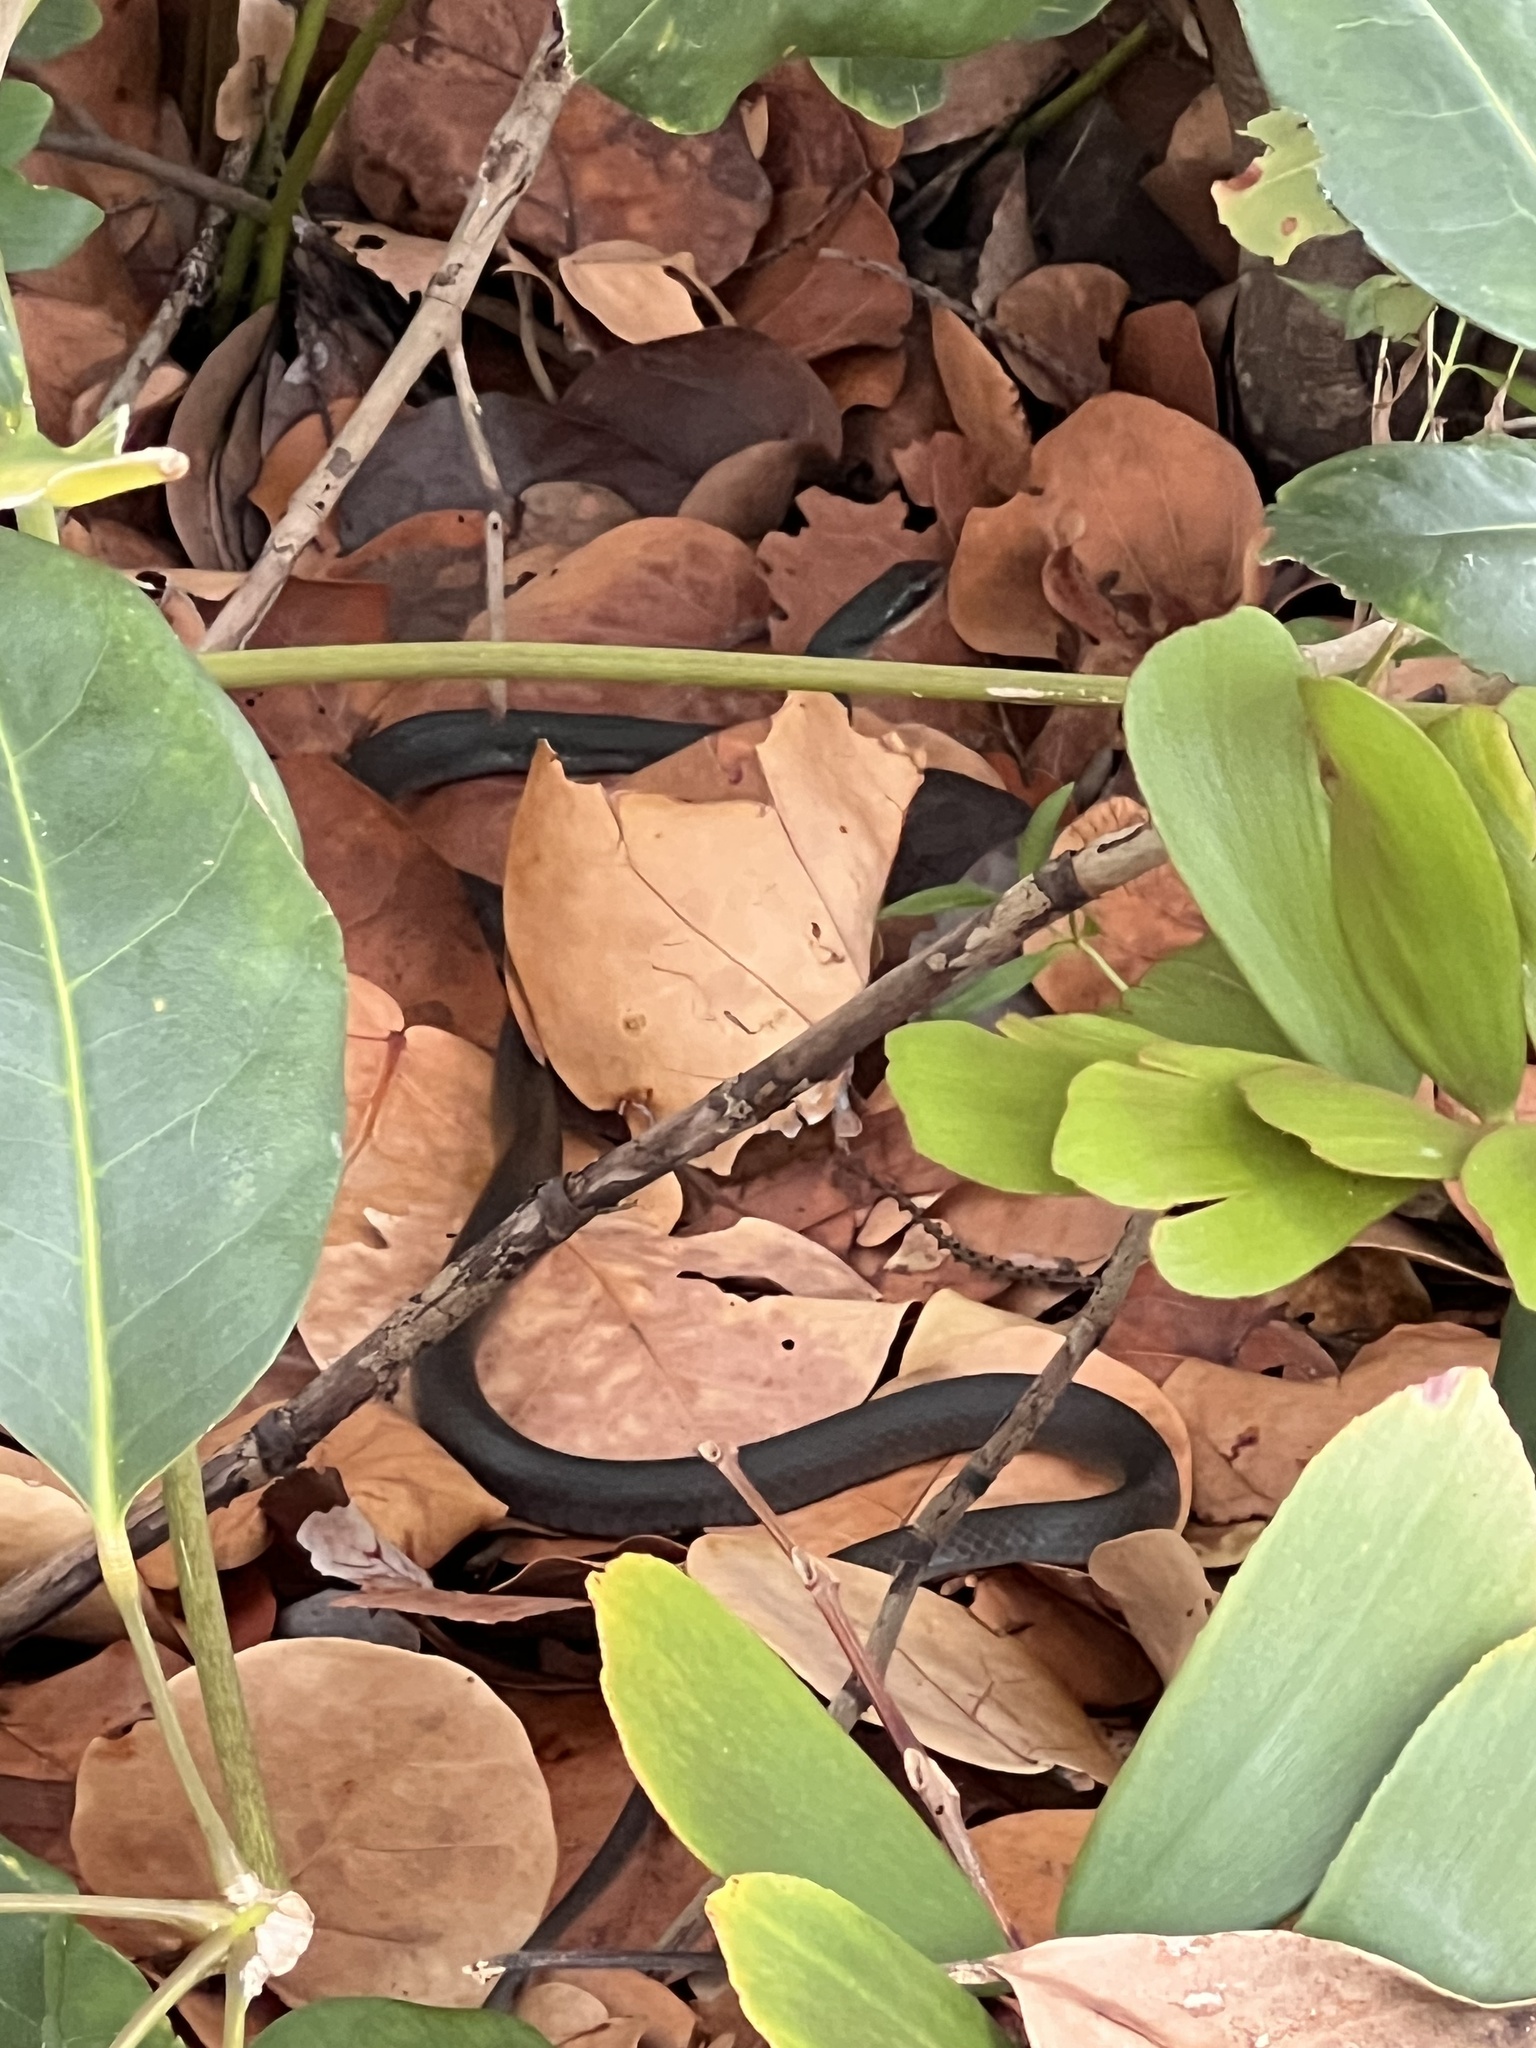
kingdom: Animalia
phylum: Chordata
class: Squamata
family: Colubridae
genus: Coluber
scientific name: Coluber constrictor
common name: Eastern racer
